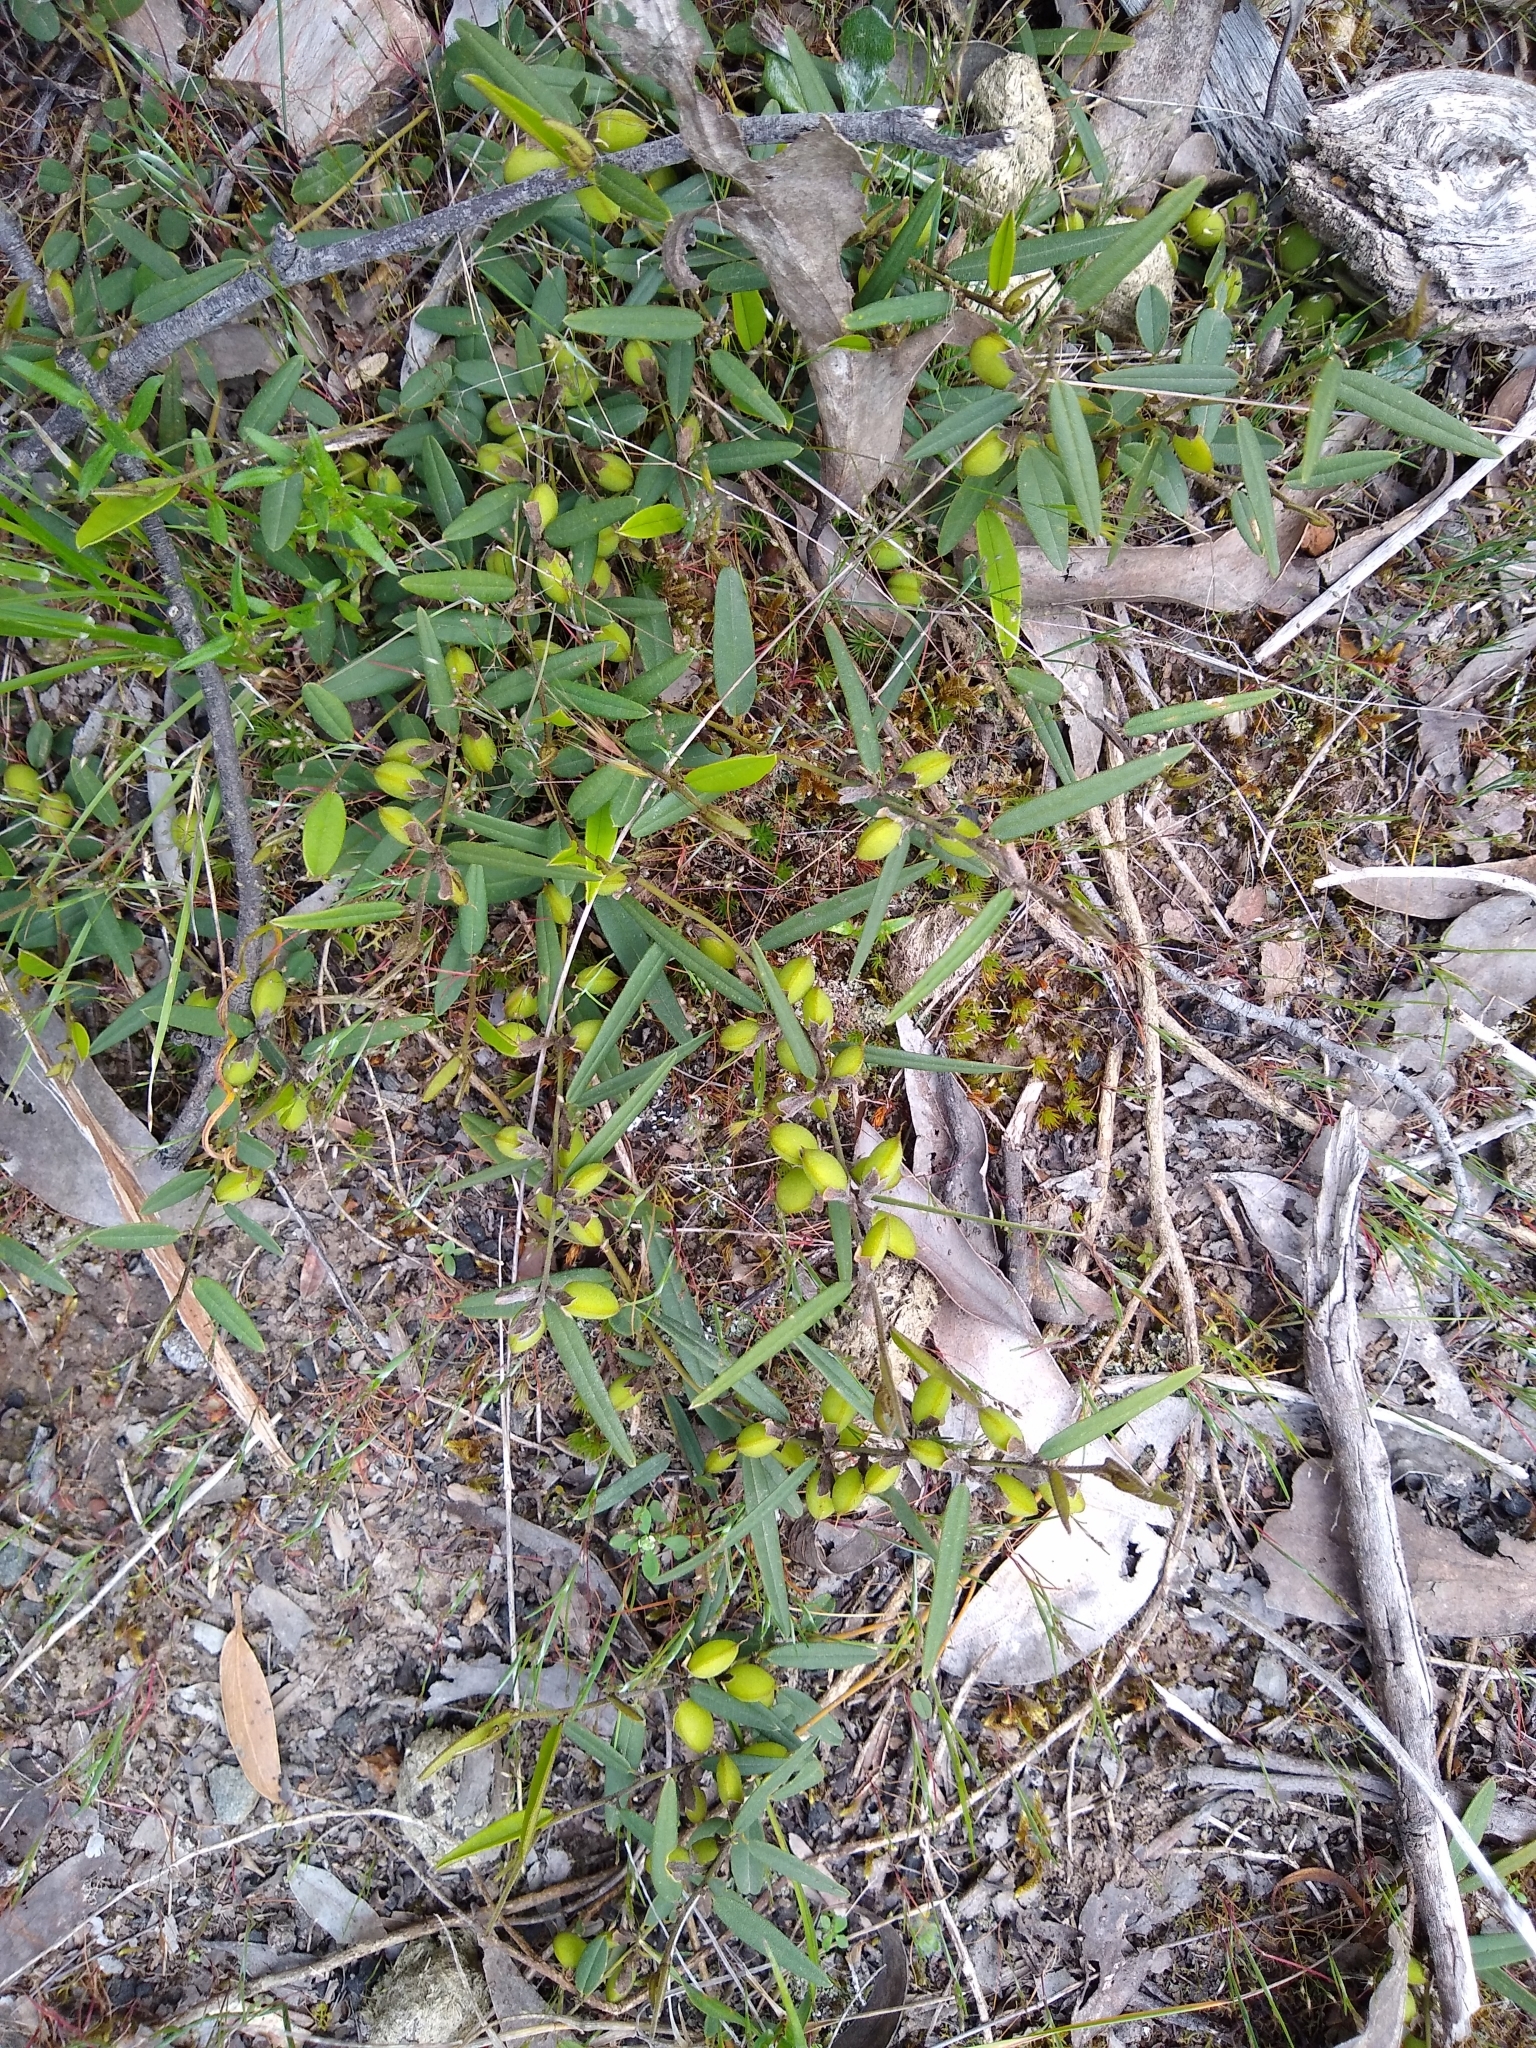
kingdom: Plantae
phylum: Tracheophyta
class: Magnoliopsida
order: Fabales
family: Fabaceae
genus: Hovea
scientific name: Hovea heterophylla
